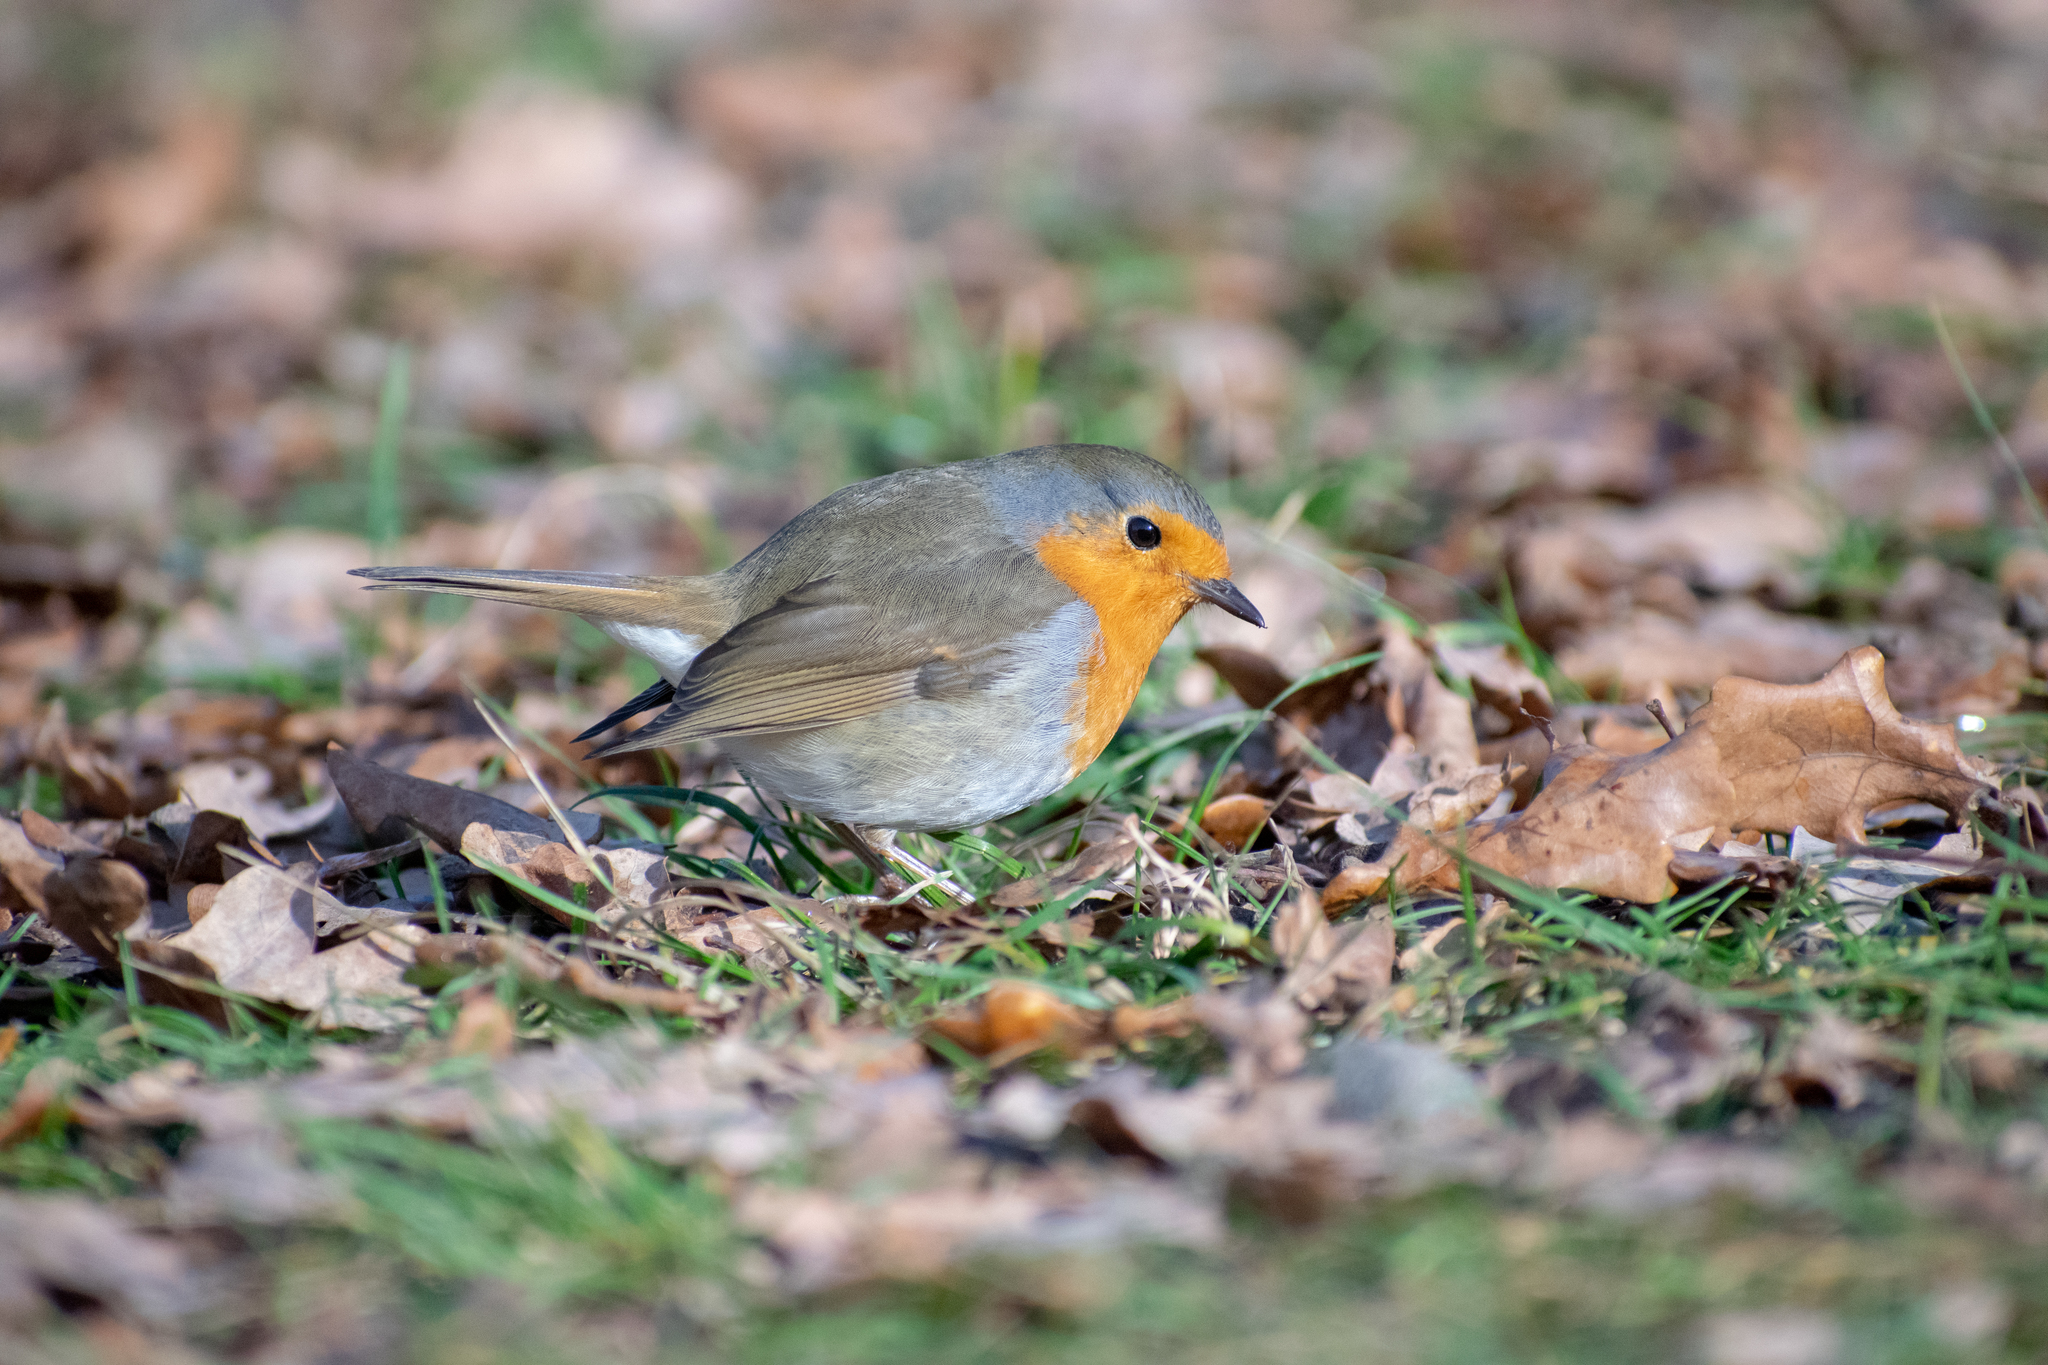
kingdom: Animalia
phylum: Chordata
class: Aves
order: Passeriformes
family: Muscicapidae
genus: Erithacus
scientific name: Erithacus rubecula
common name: European robin
